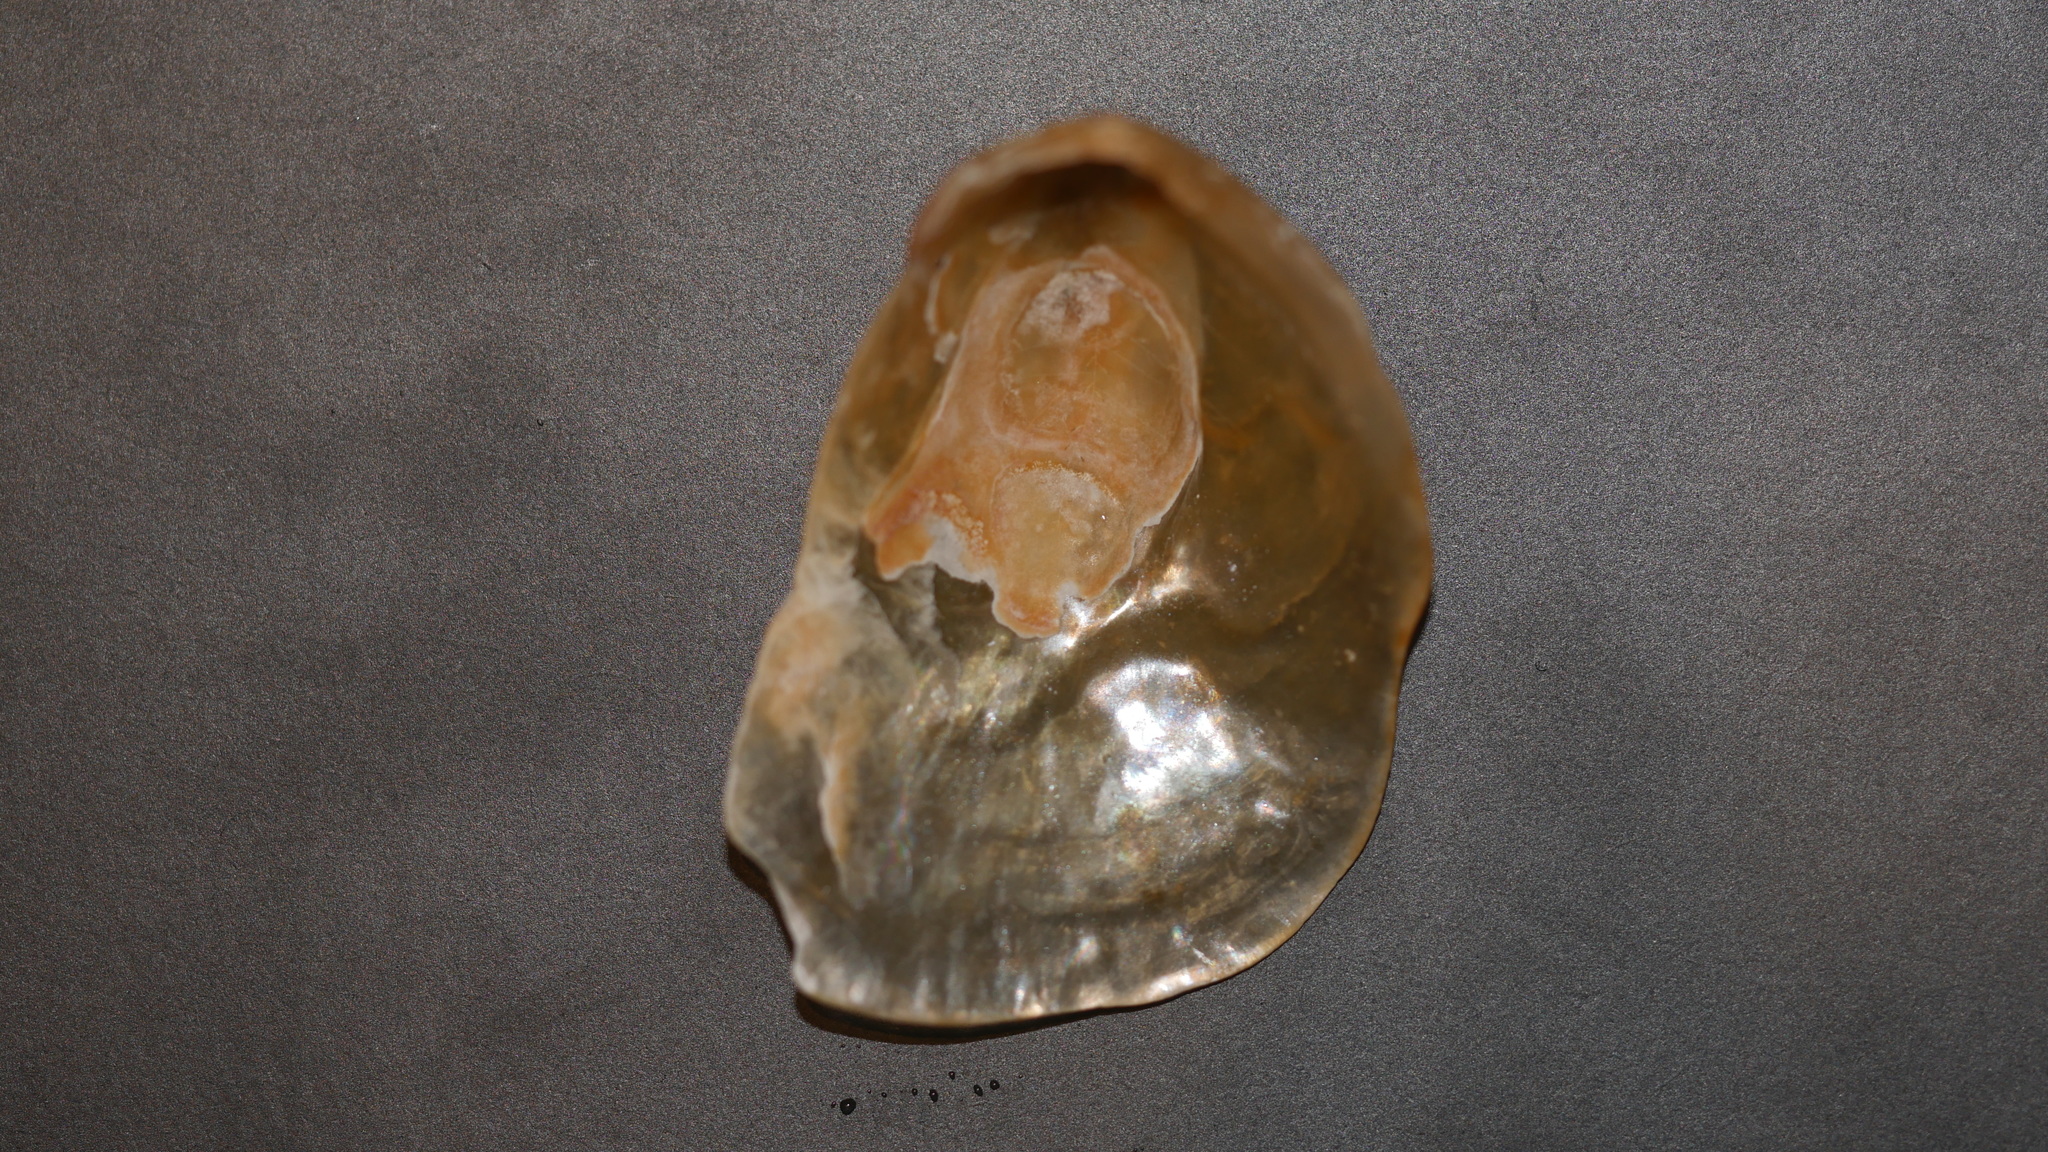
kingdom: Animalia
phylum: Mollusca
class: Bivalvia
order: Pectinida
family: Anomiidae
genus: Anomia
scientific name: Anomia simplex
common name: Common jingle shell
